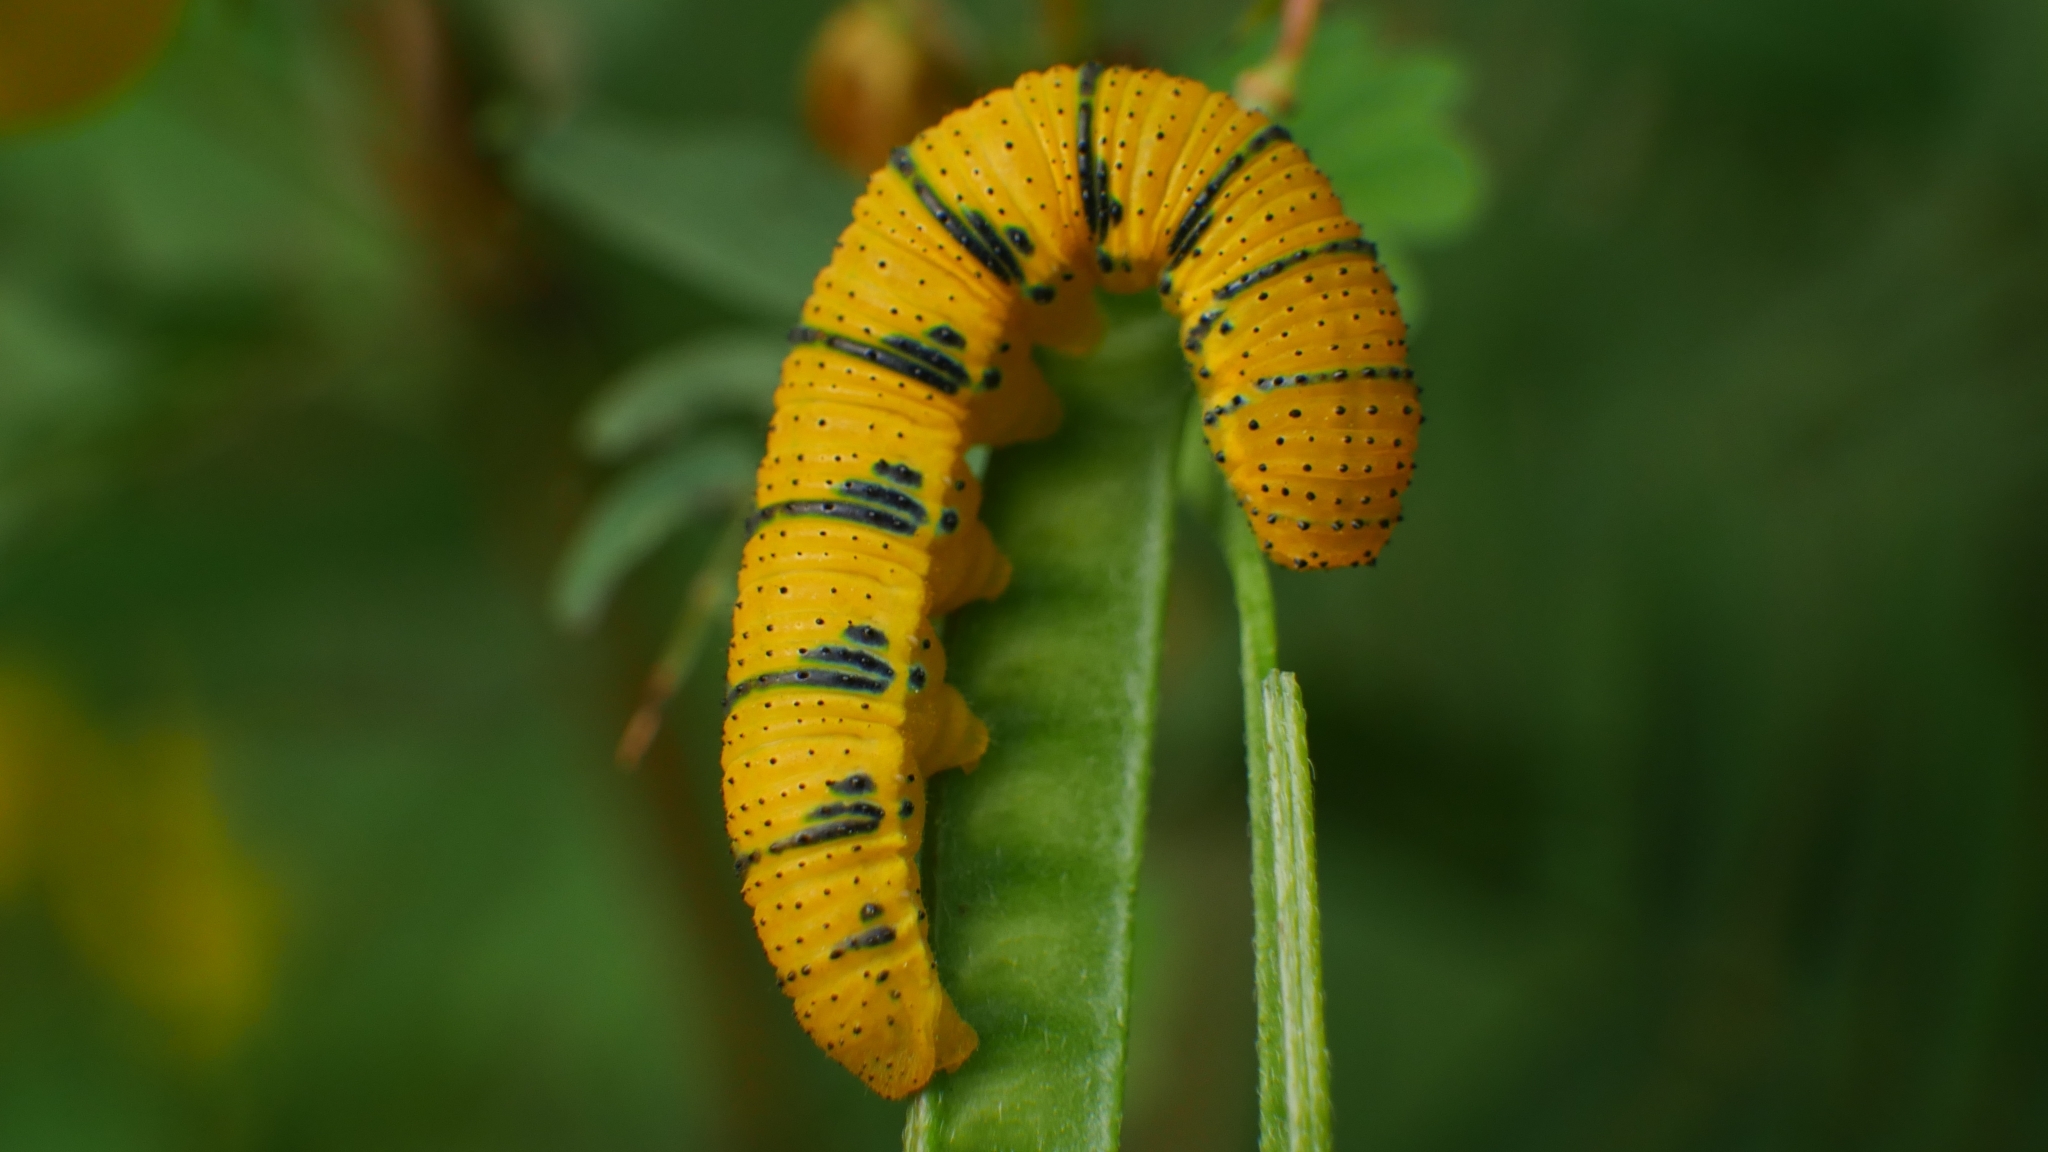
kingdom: Animalia
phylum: Arthropoda
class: Insecta
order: Lepidoptera
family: Pieridae
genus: Phoebis
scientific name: Phoebis sennae
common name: Cloudless sulphur
